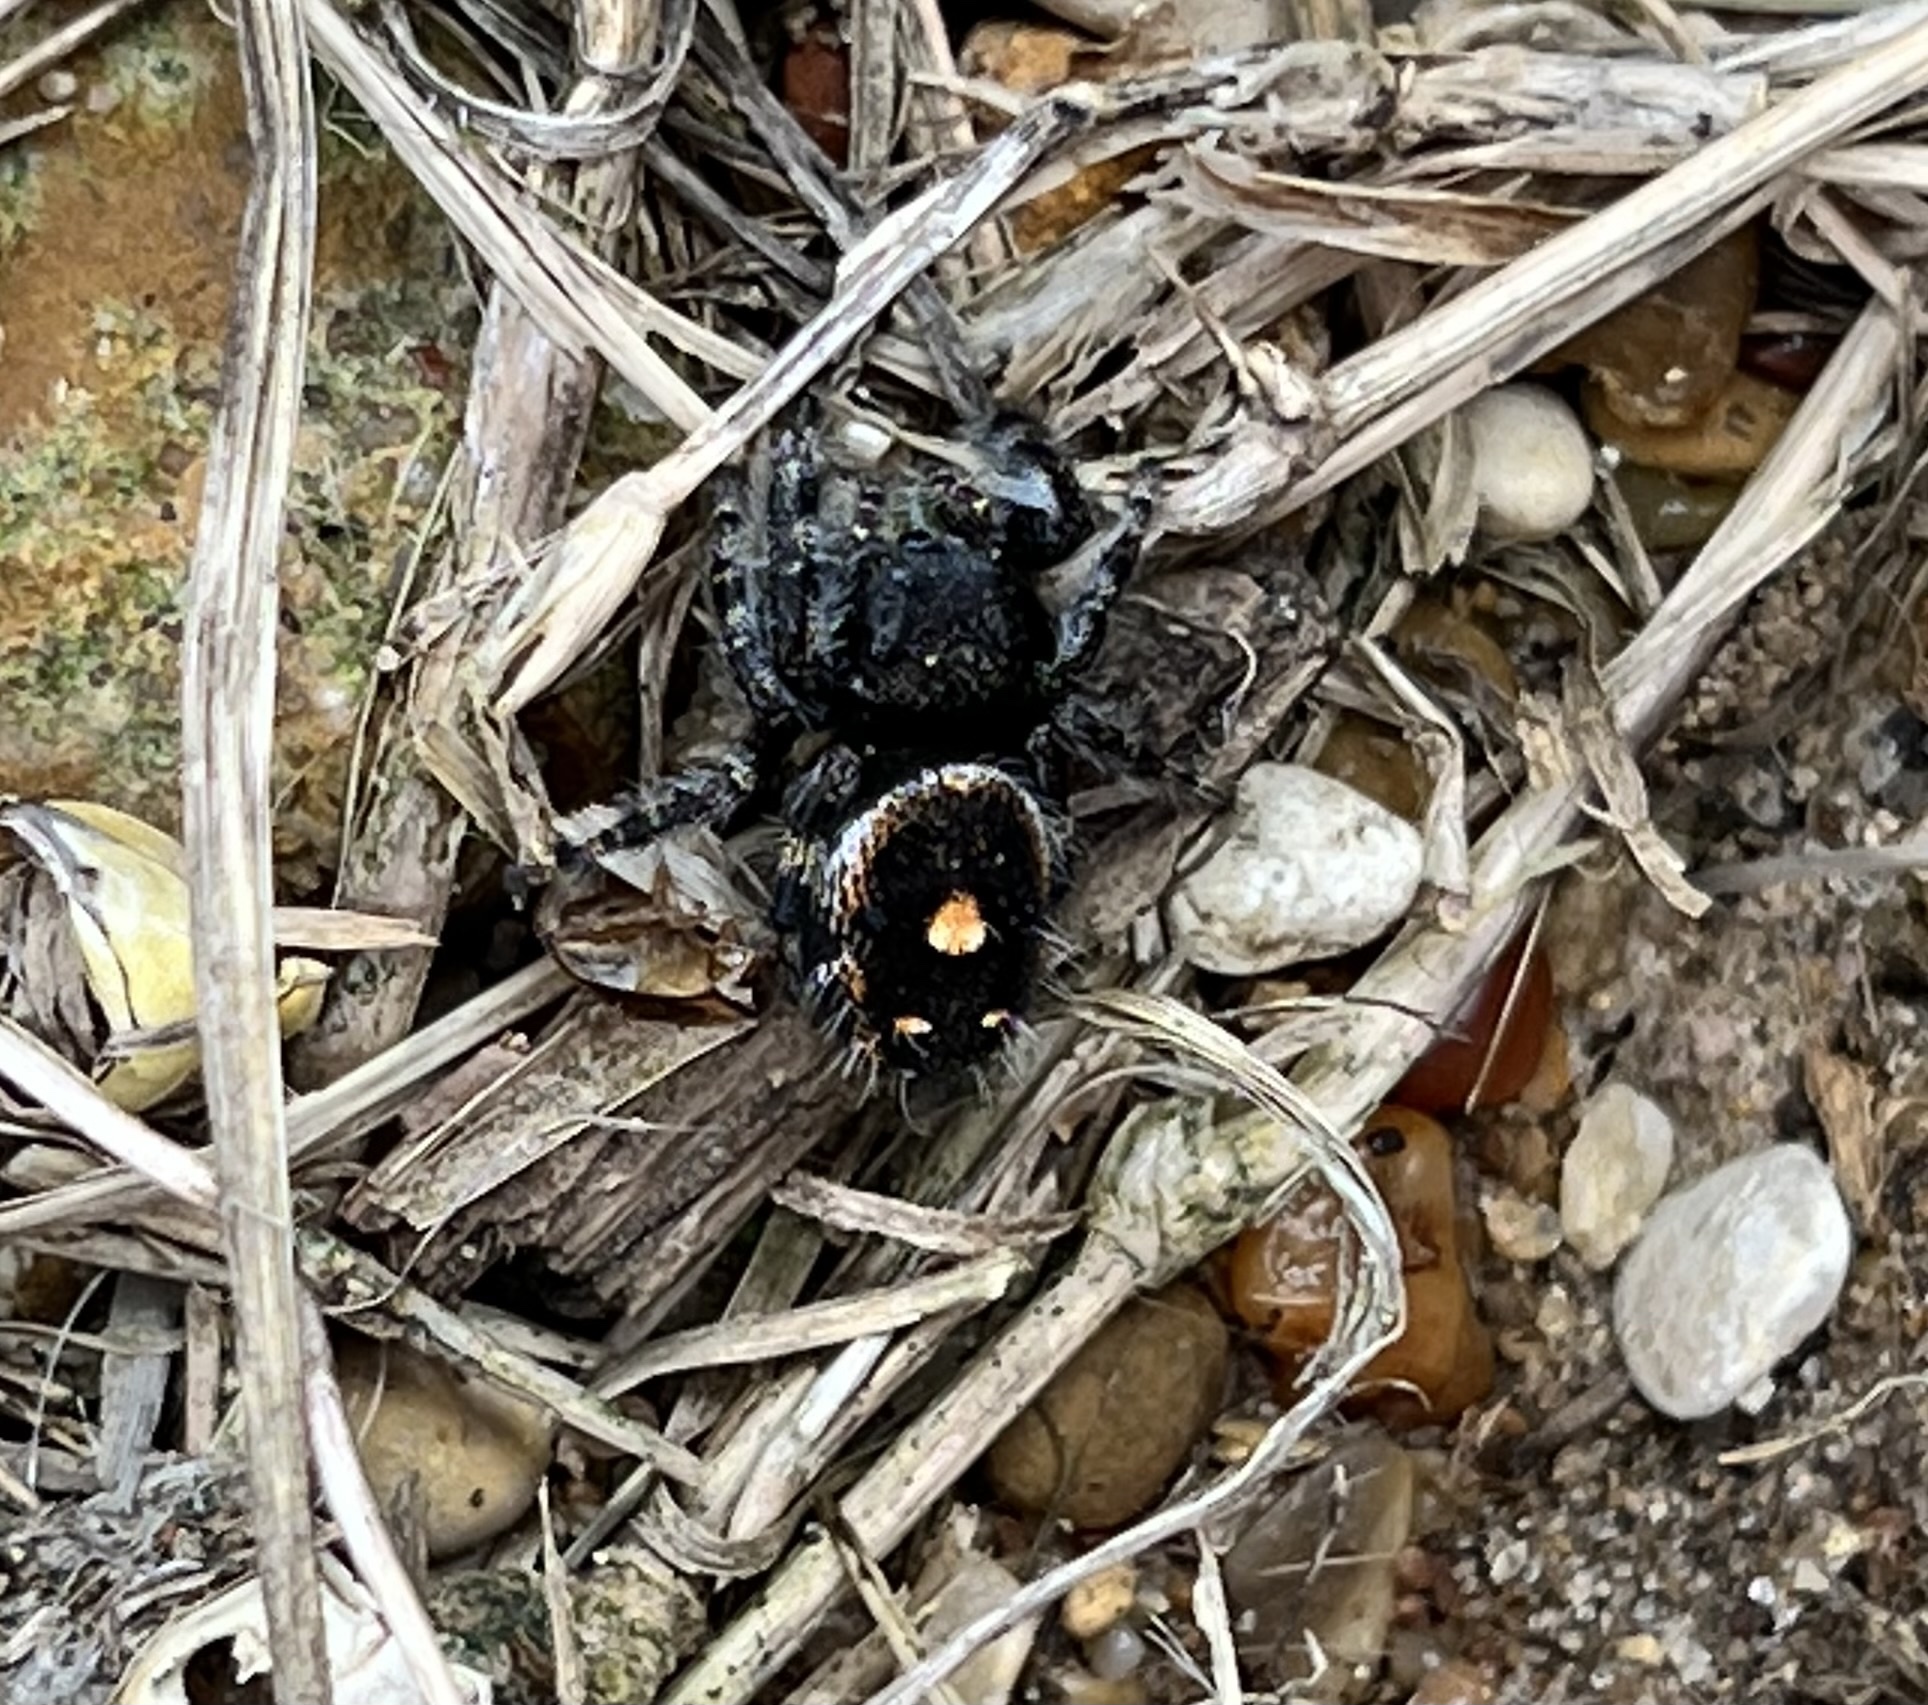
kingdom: Animalia
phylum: Arthropoda
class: Arachnida
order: Araneae
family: Salticidae
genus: Phidippus
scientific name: Phidippus audax
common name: Bold jumper
